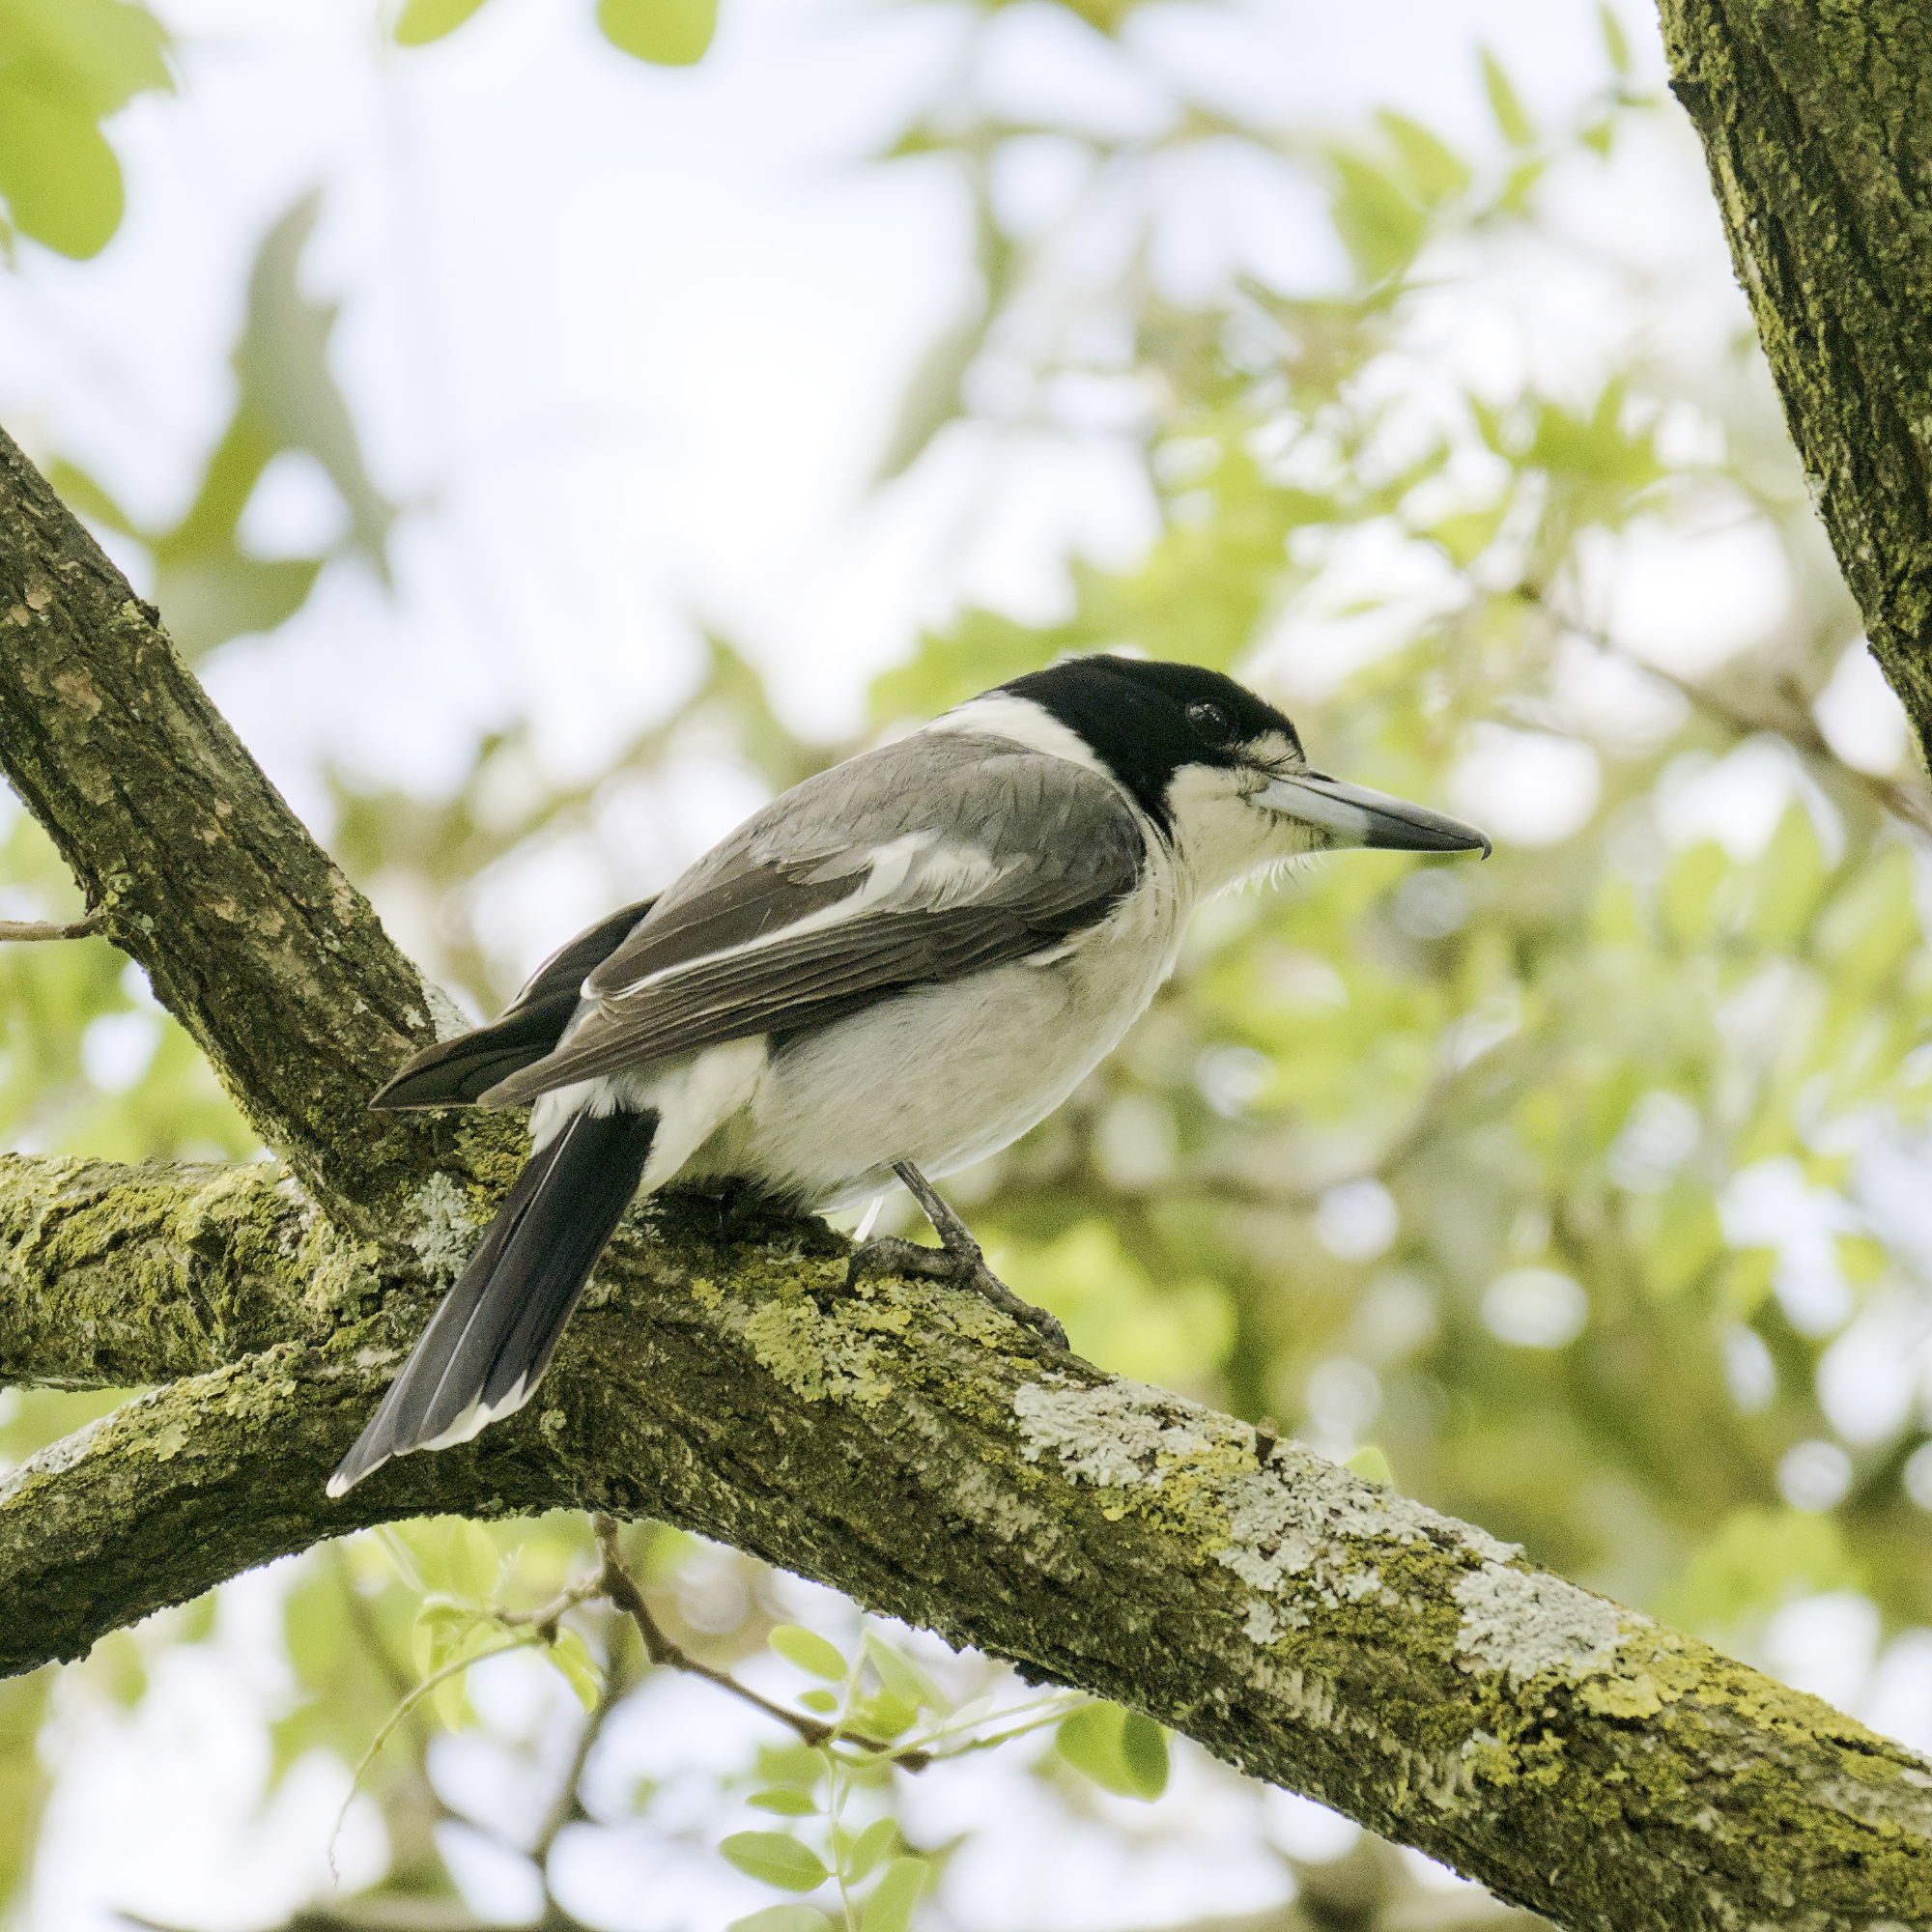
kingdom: Animalia
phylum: Chordata
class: Aves
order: Passeriformes
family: Cracticidae
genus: Cracticus
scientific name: Cracticus torquatus
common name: Grey butcherbird
